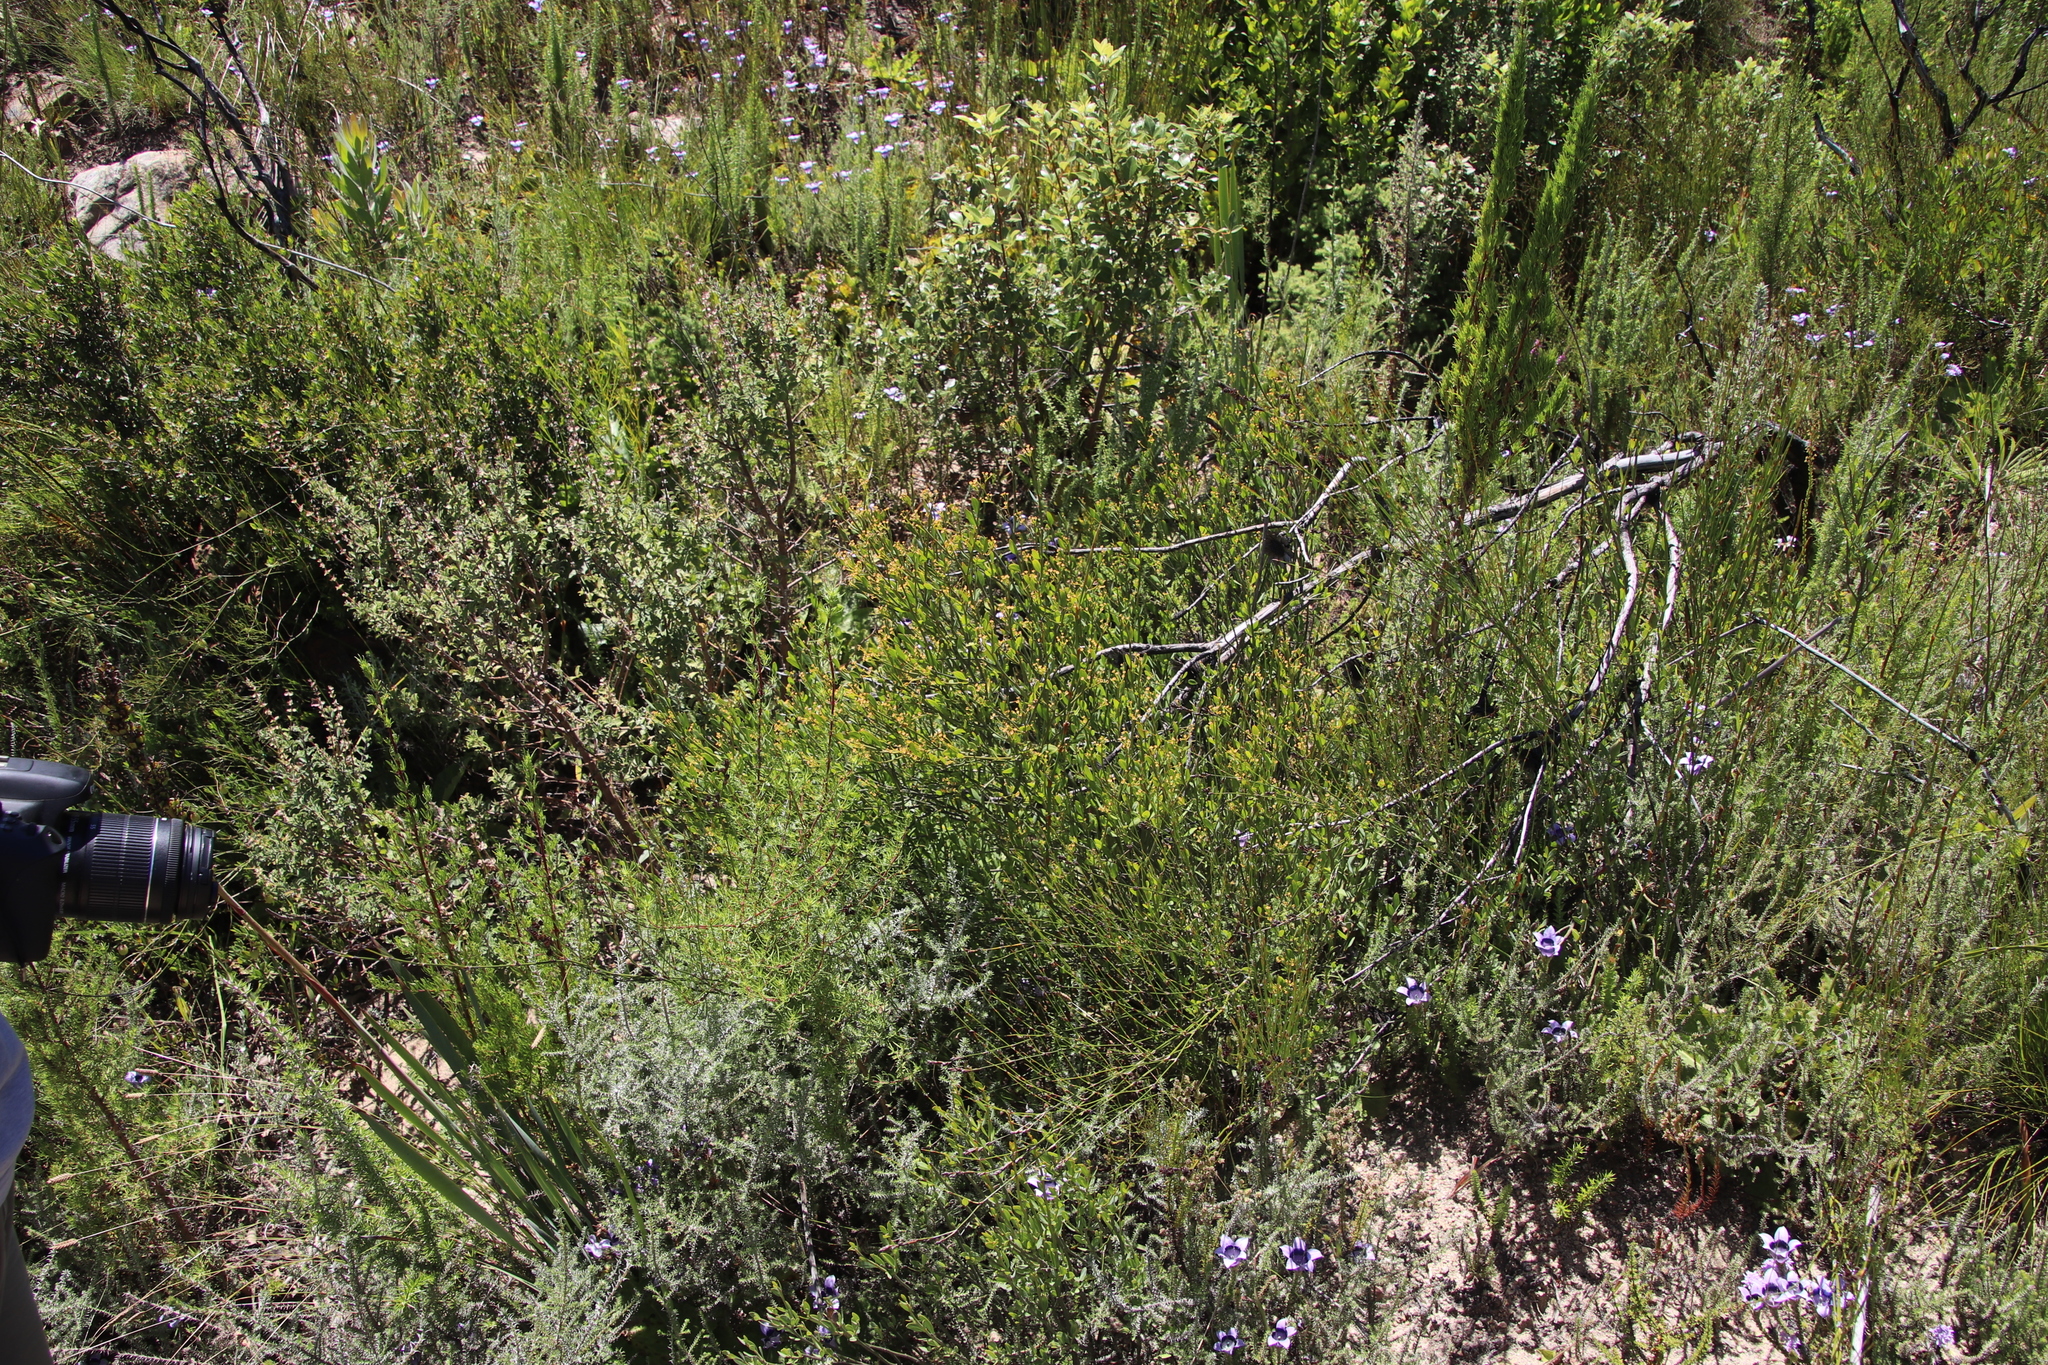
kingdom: Plantae
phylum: Tracheophyta
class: Magnoliopsida
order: Solanales
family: Montiniaceae
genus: Montinia
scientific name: Montinia caryophyllacea
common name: Wild clove-bush
